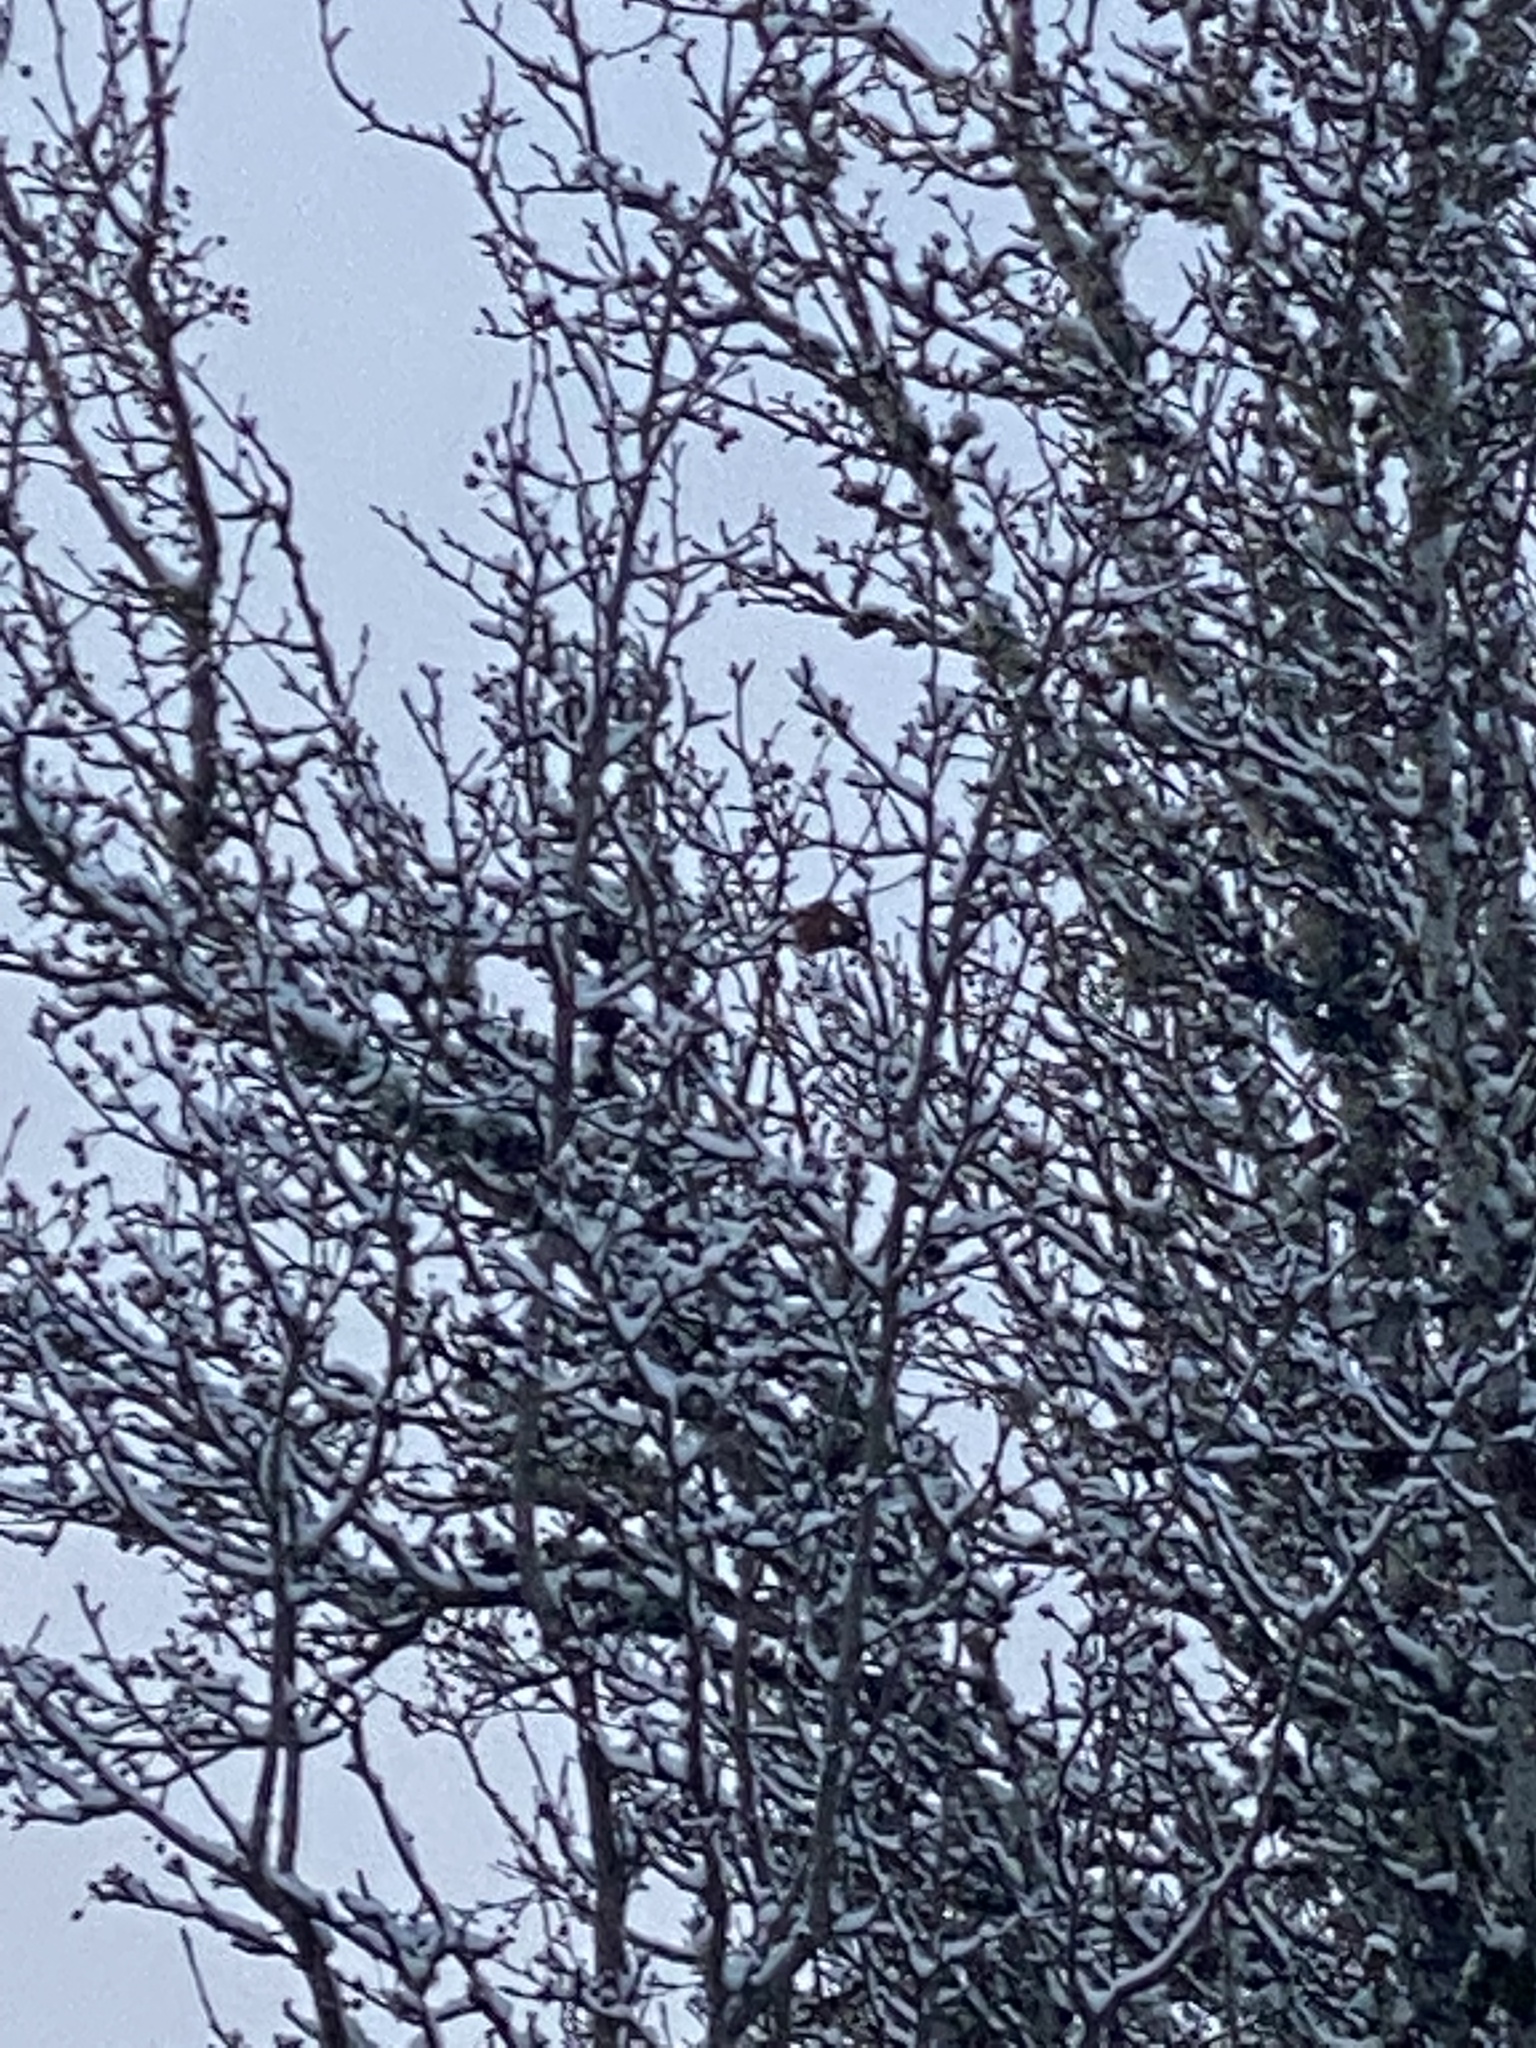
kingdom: Animalia
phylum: Chordata
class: Aves
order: Passeriformes
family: Turdidae
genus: Turdus
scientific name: Turdus migratorius
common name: American robin
